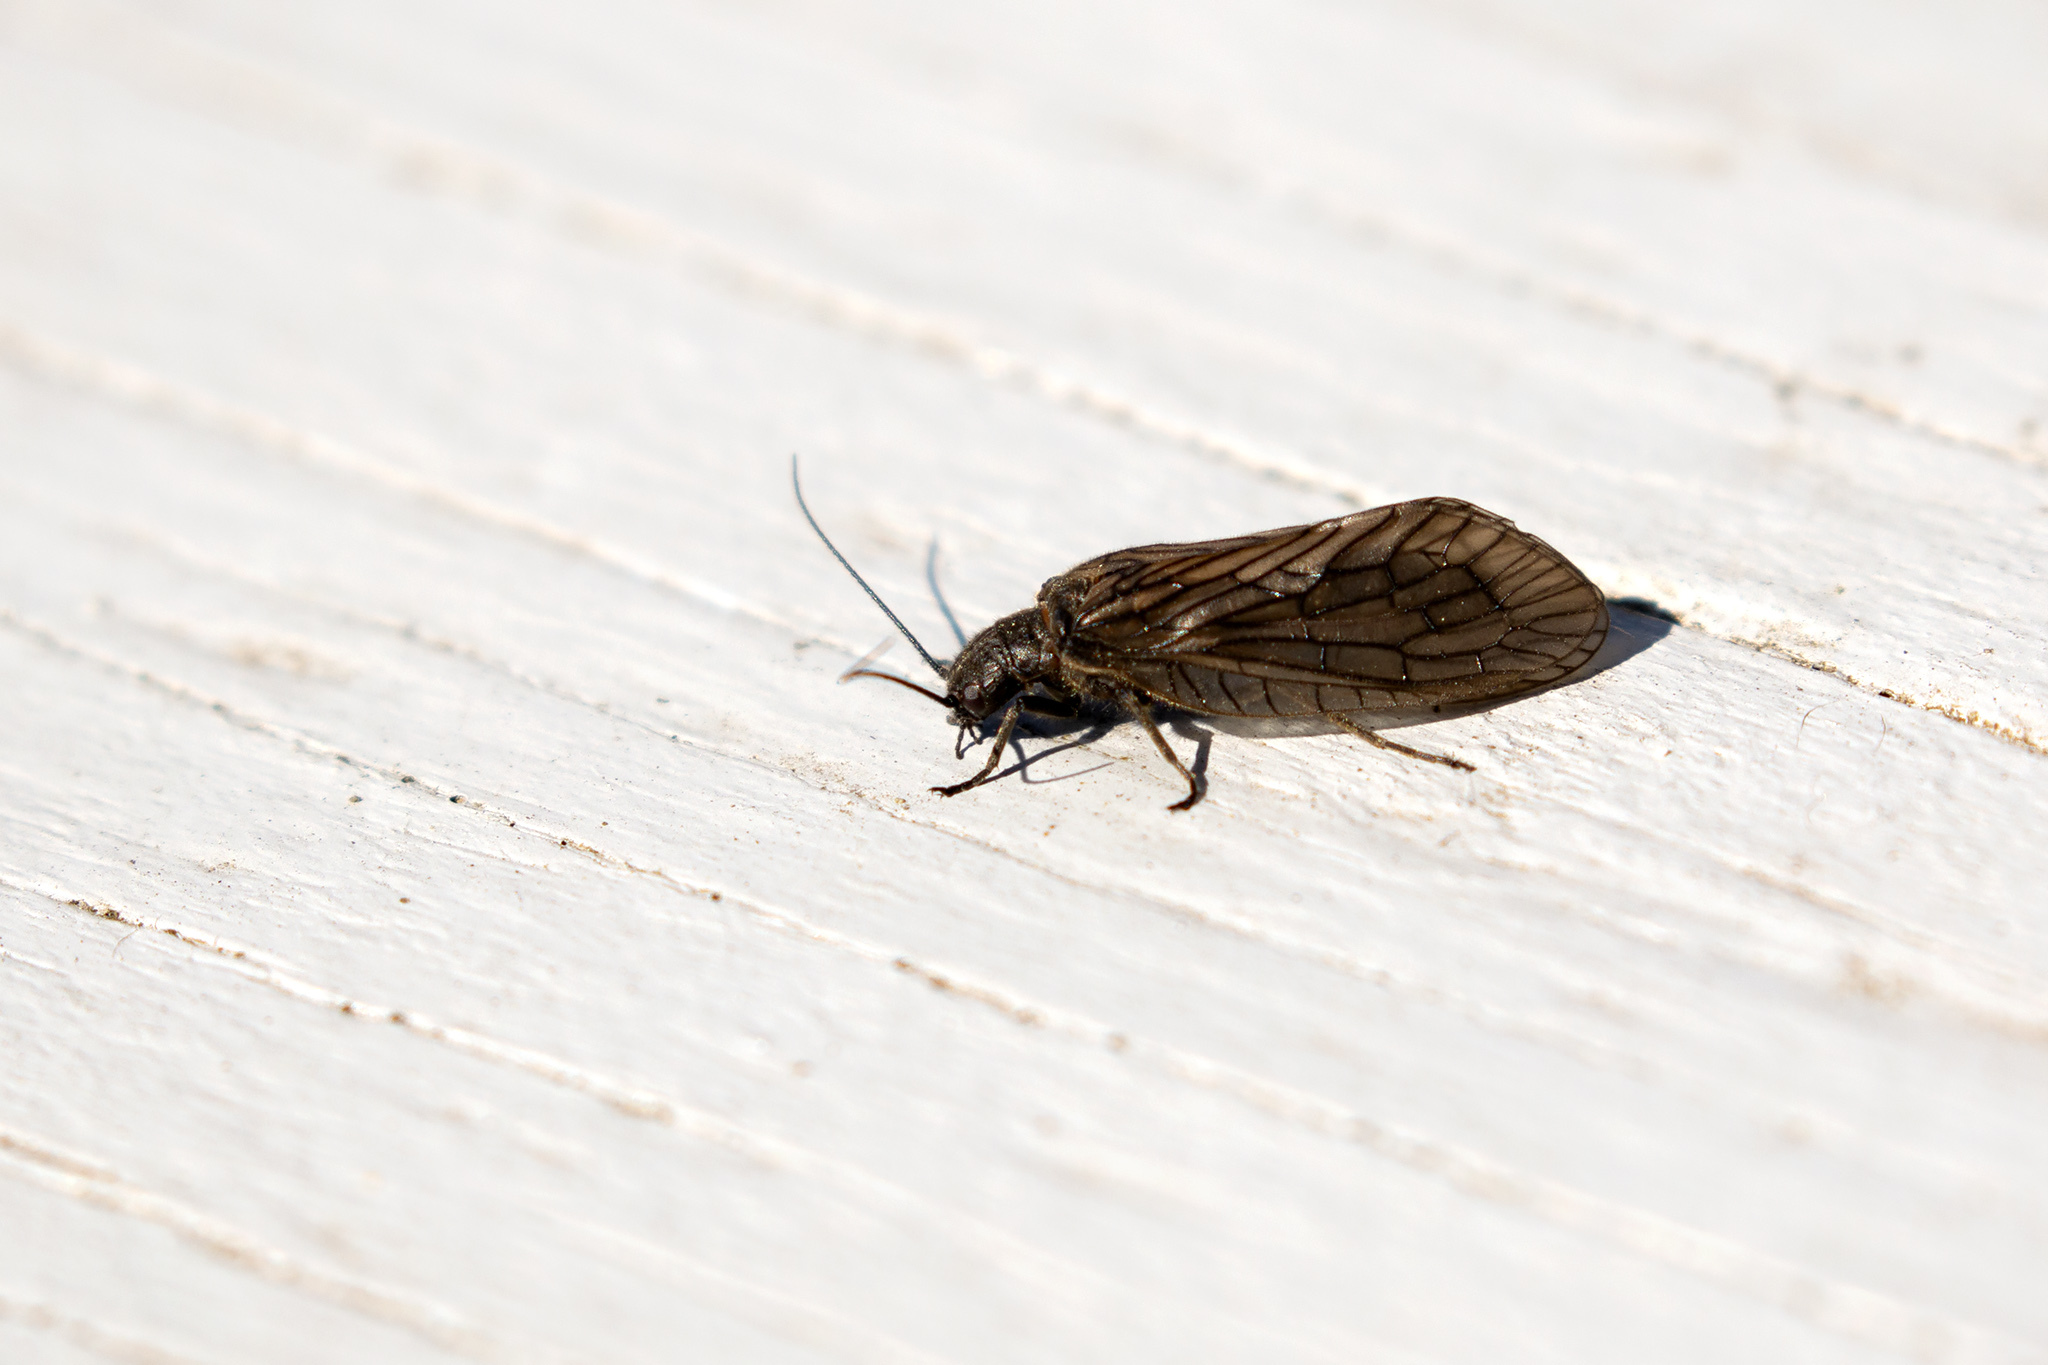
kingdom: Animalia
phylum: Arthropoda
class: Insecta
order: Megaloptera
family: Sialidae
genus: Sialis
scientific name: Sialis
